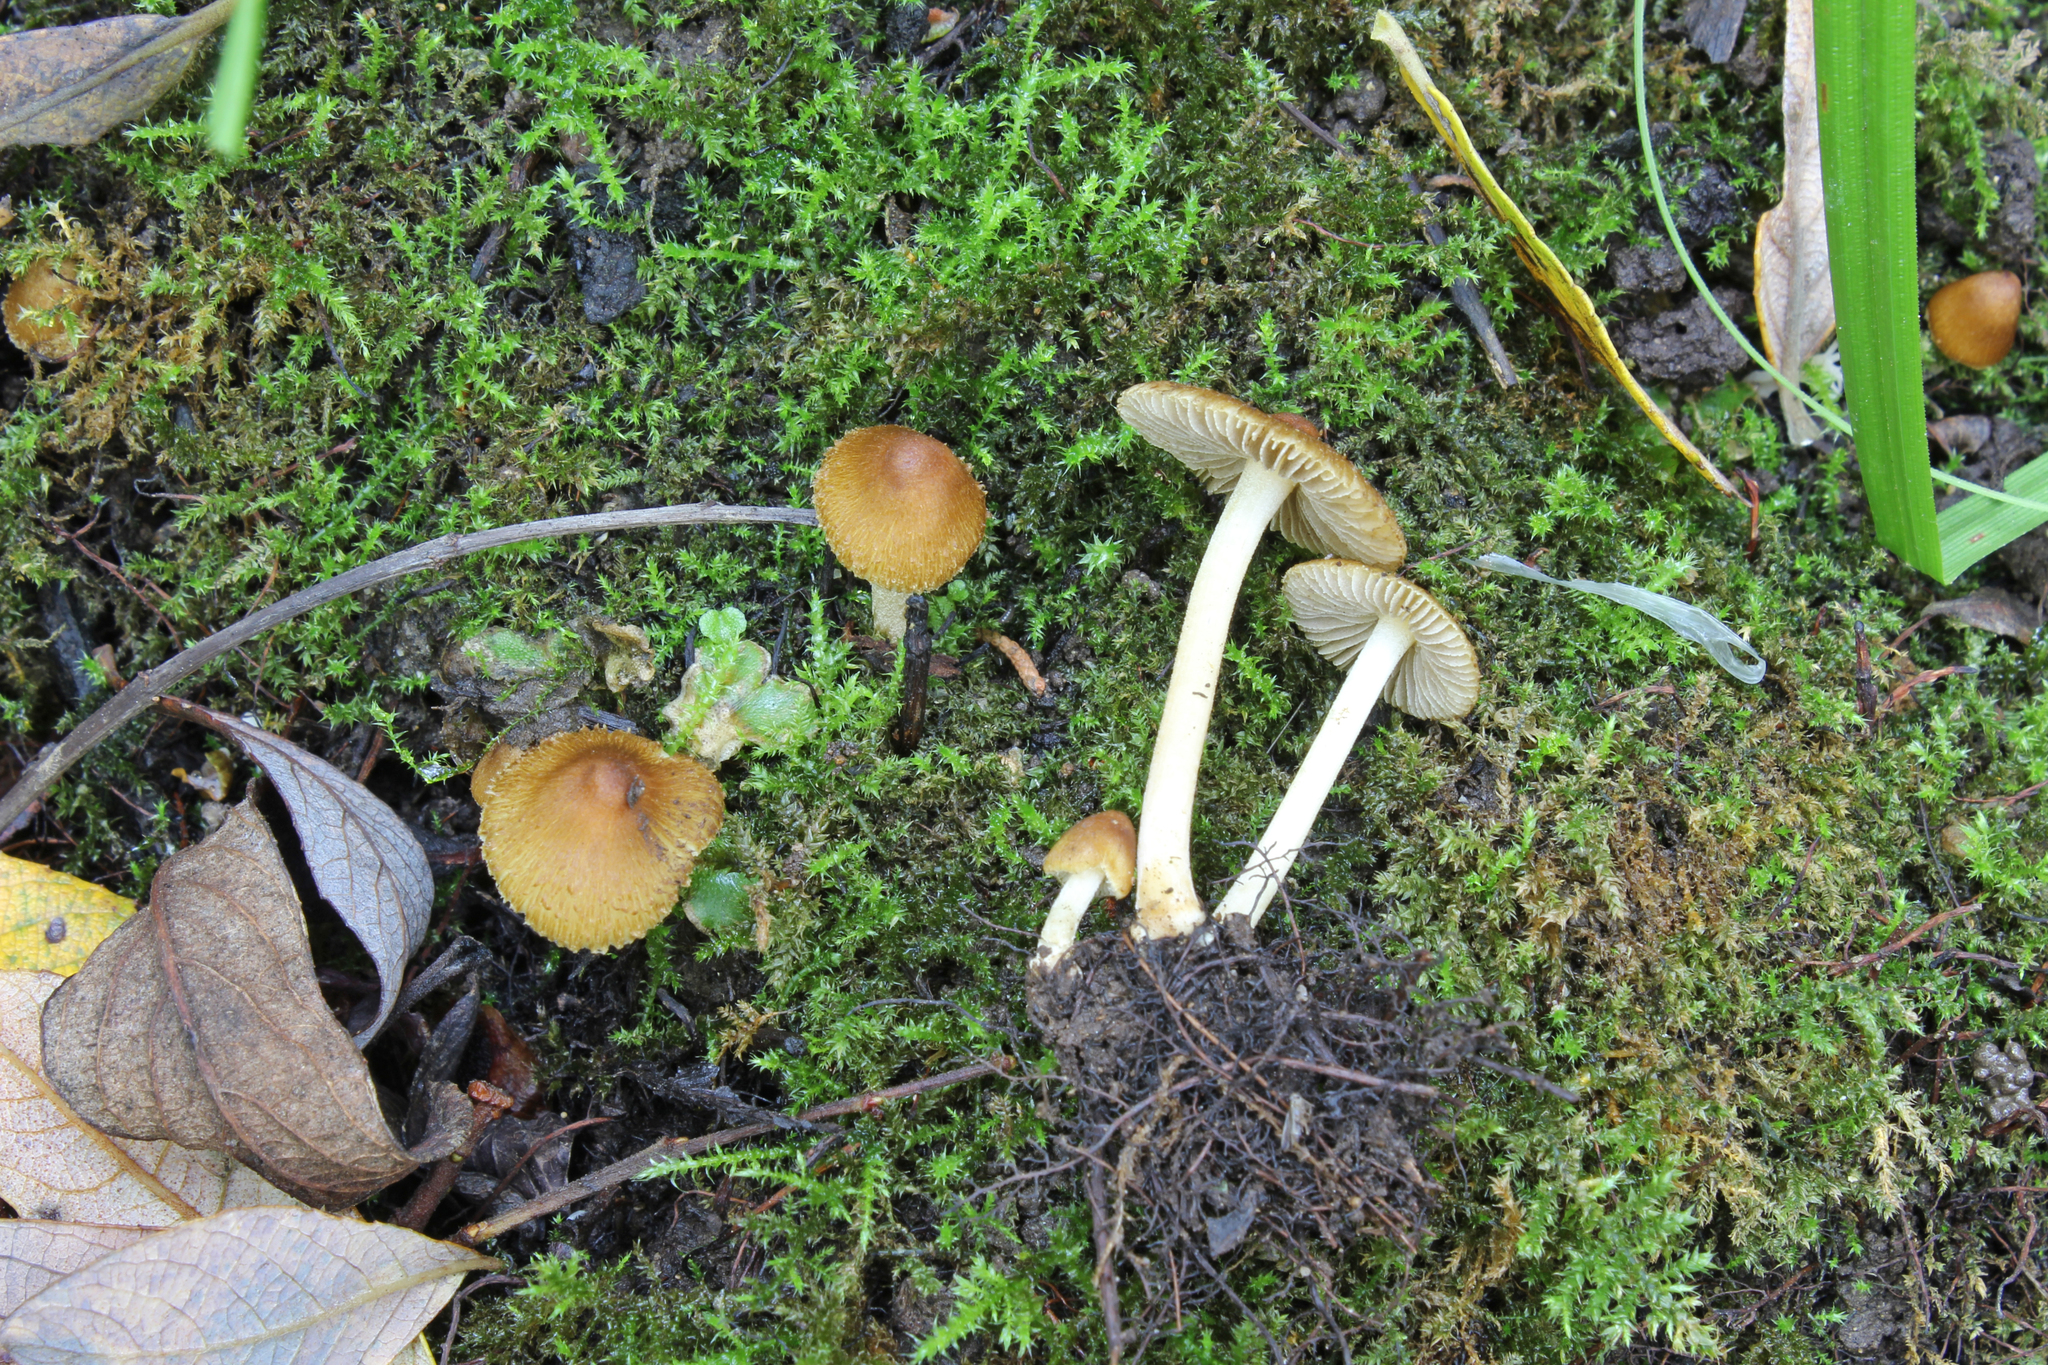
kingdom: Fungi
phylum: Basidiomycota
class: Agaricomycetes
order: Agaricales
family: Inocybaceae
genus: Inocybe
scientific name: Inocybe salicis
